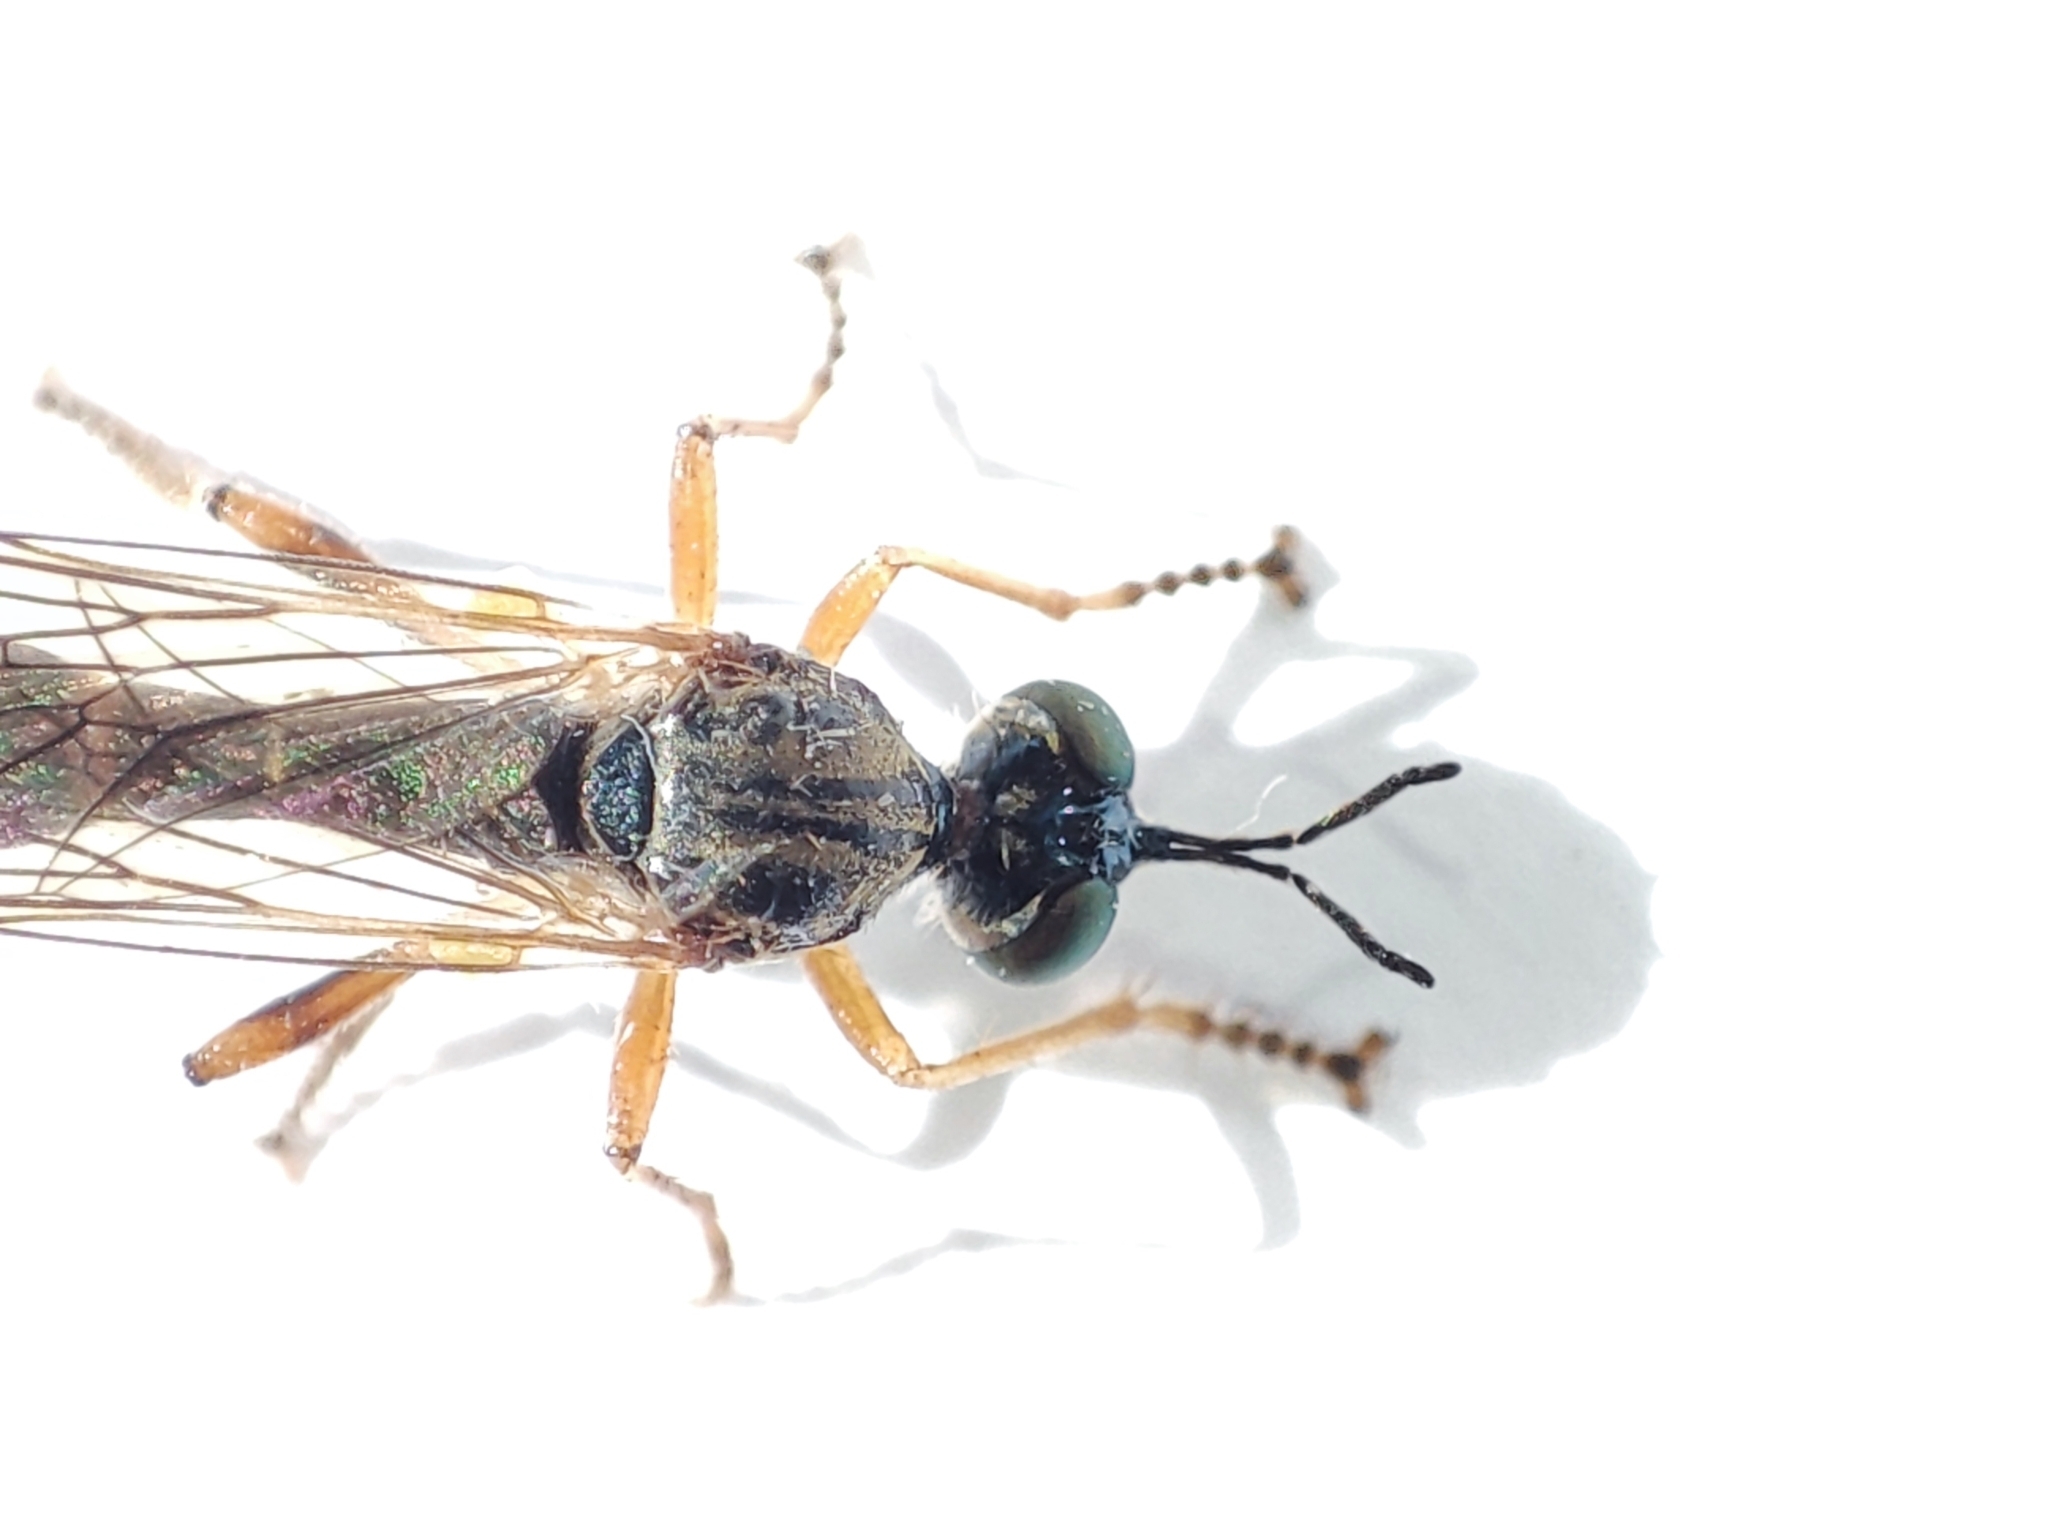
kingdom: Animalia
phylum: Arthropoda
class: Insecta
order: Diptera
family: Asilidae
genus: Dioctria
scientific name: Dioctria linearis
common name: Small yellow-legged robberfly
